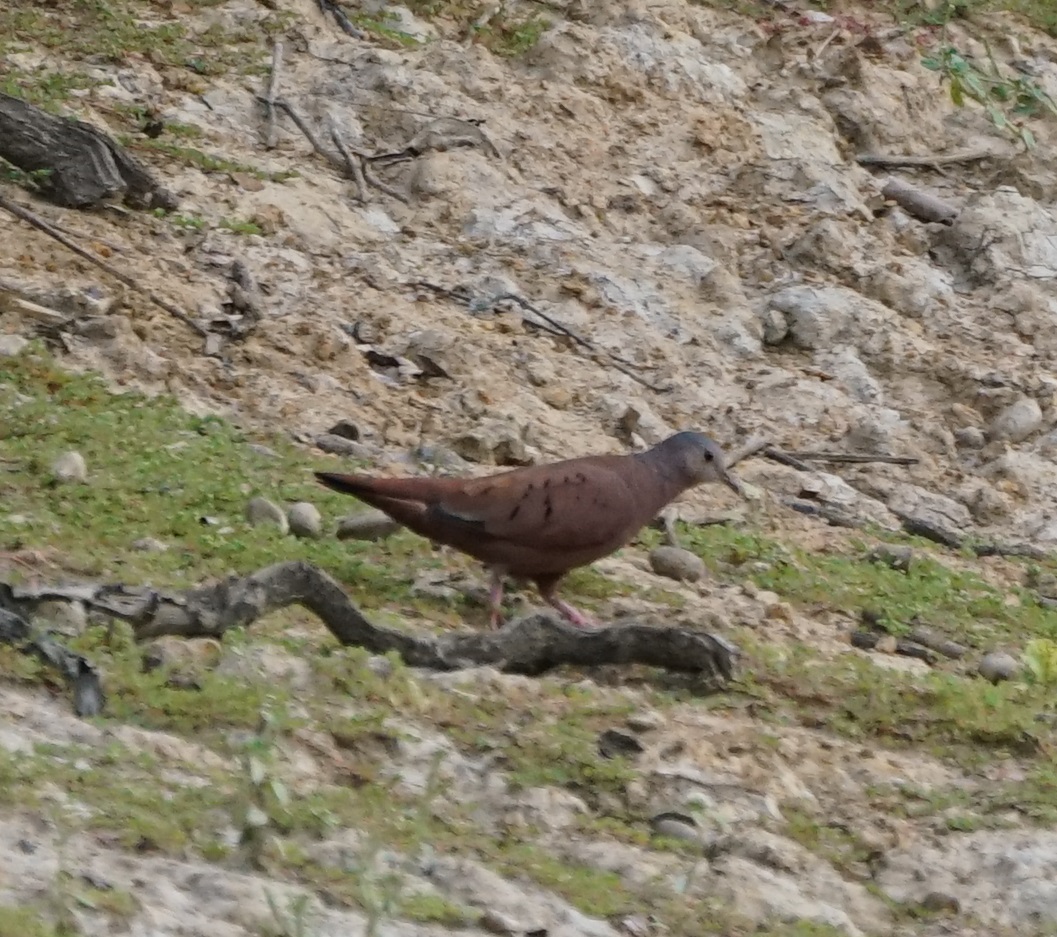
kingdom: Animalia
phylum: Chordata
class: Aves
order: Columbiformes
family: Columbidae
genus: Columbina
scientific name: Columbina talpacoti
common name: Ruddy ground dove
